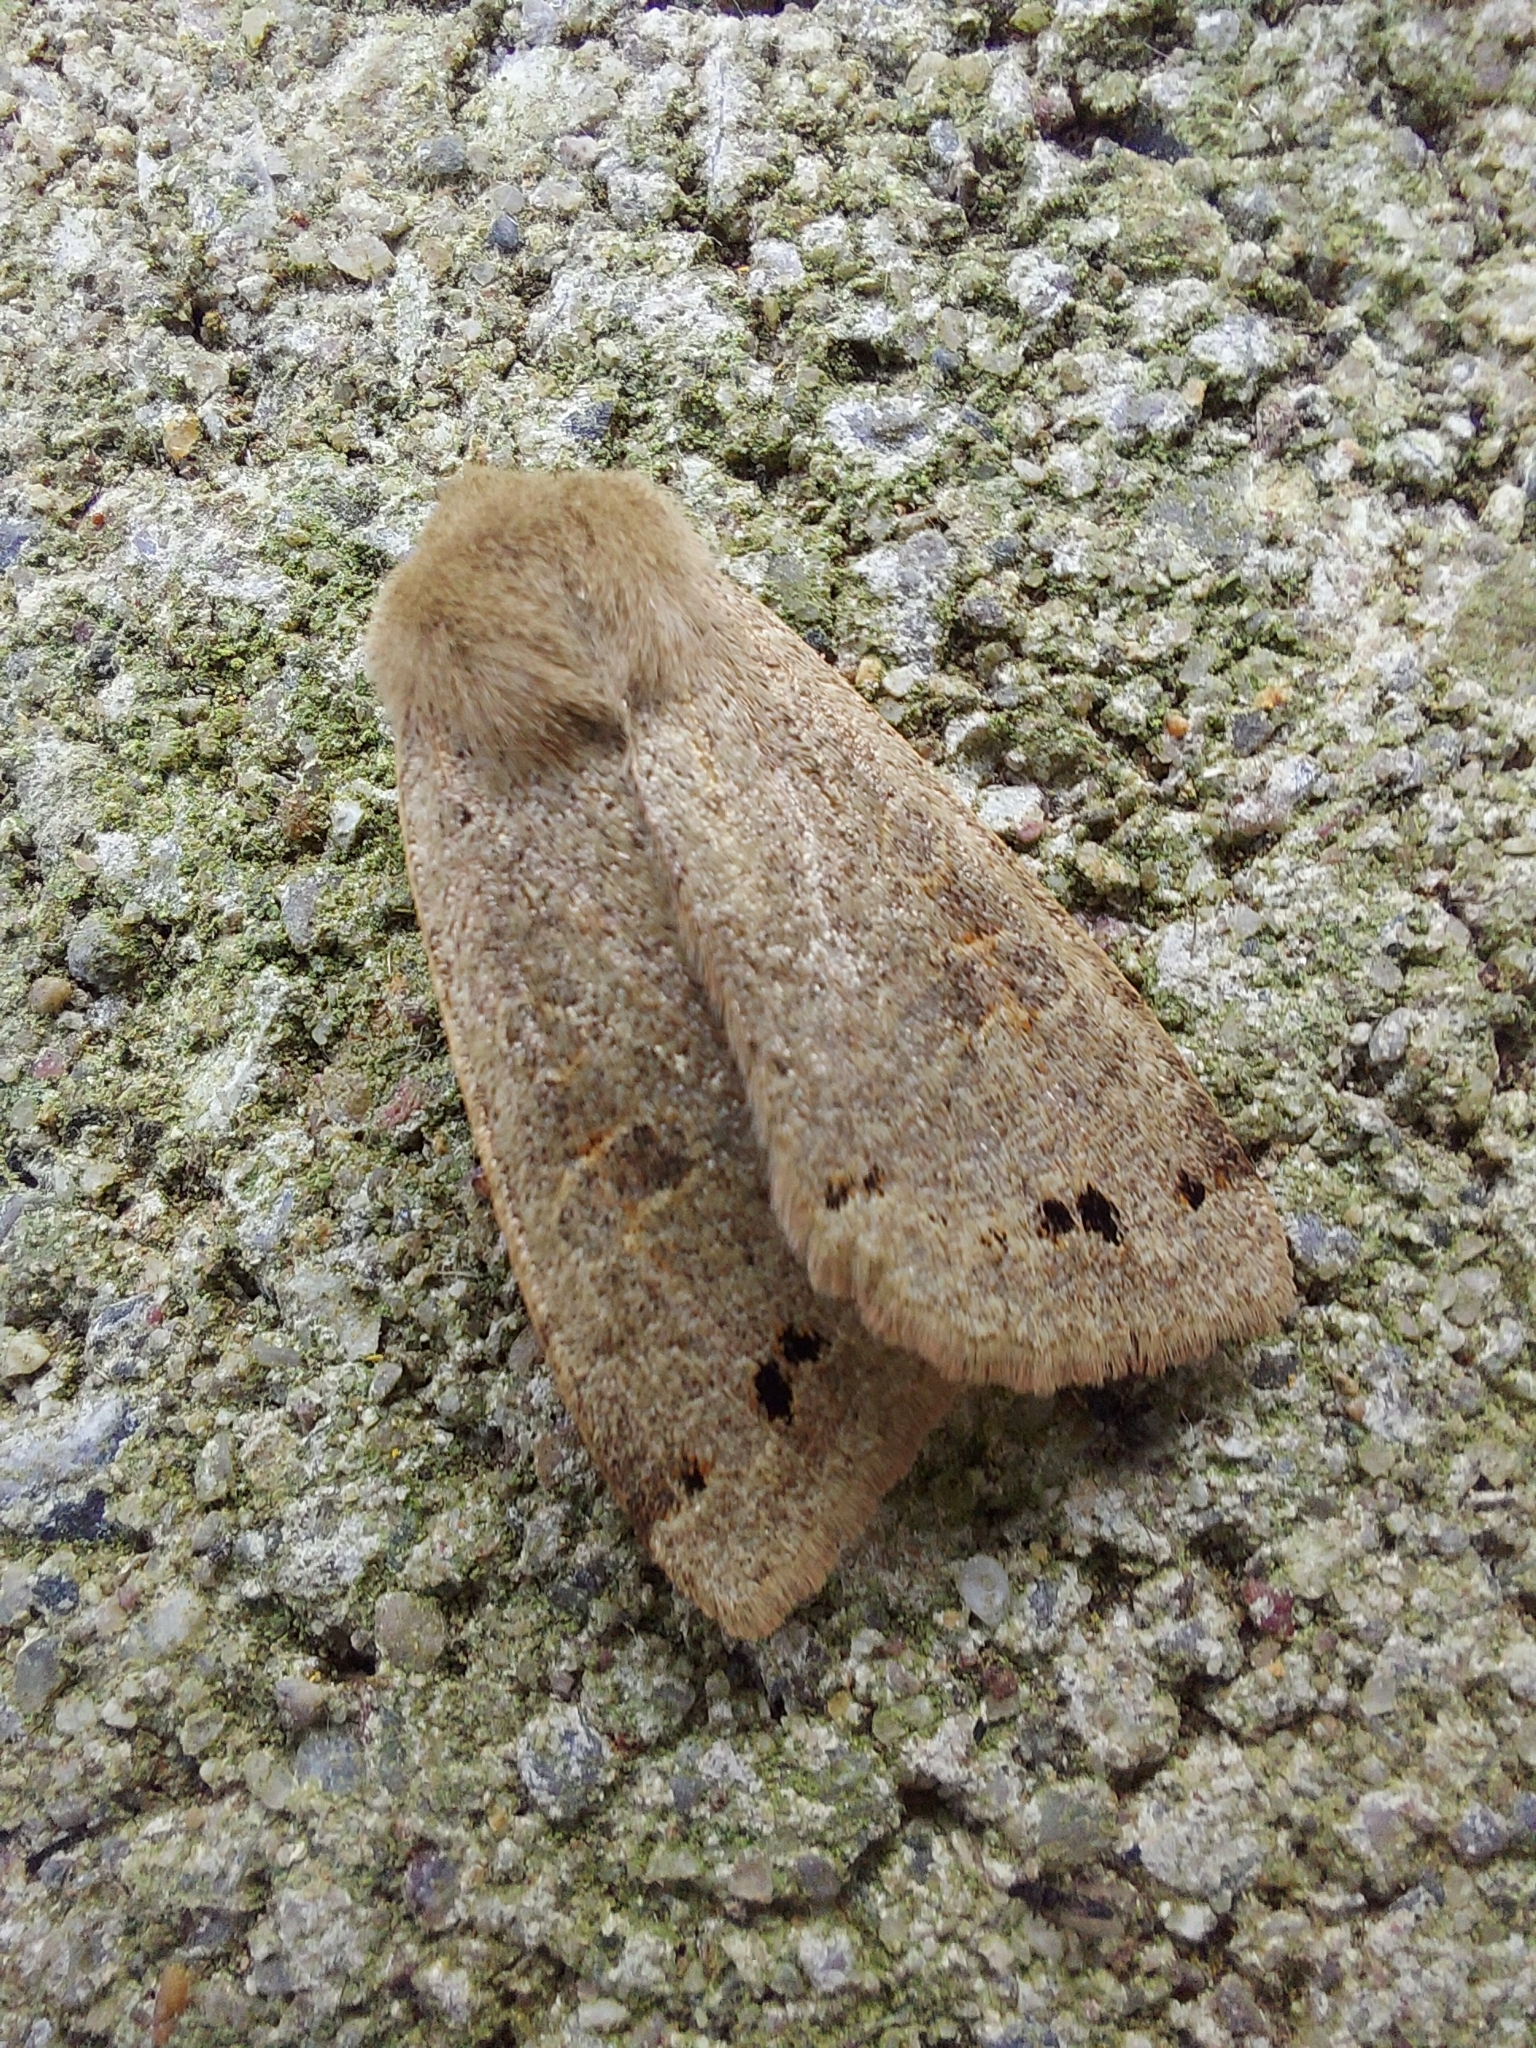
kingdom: Animalia
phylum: Arthropoda
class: Insecta
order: Lepidoptera
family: Noctuidae
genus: Anorthoa
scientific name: Anorthoa munda
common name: Twin-spotted quaker
